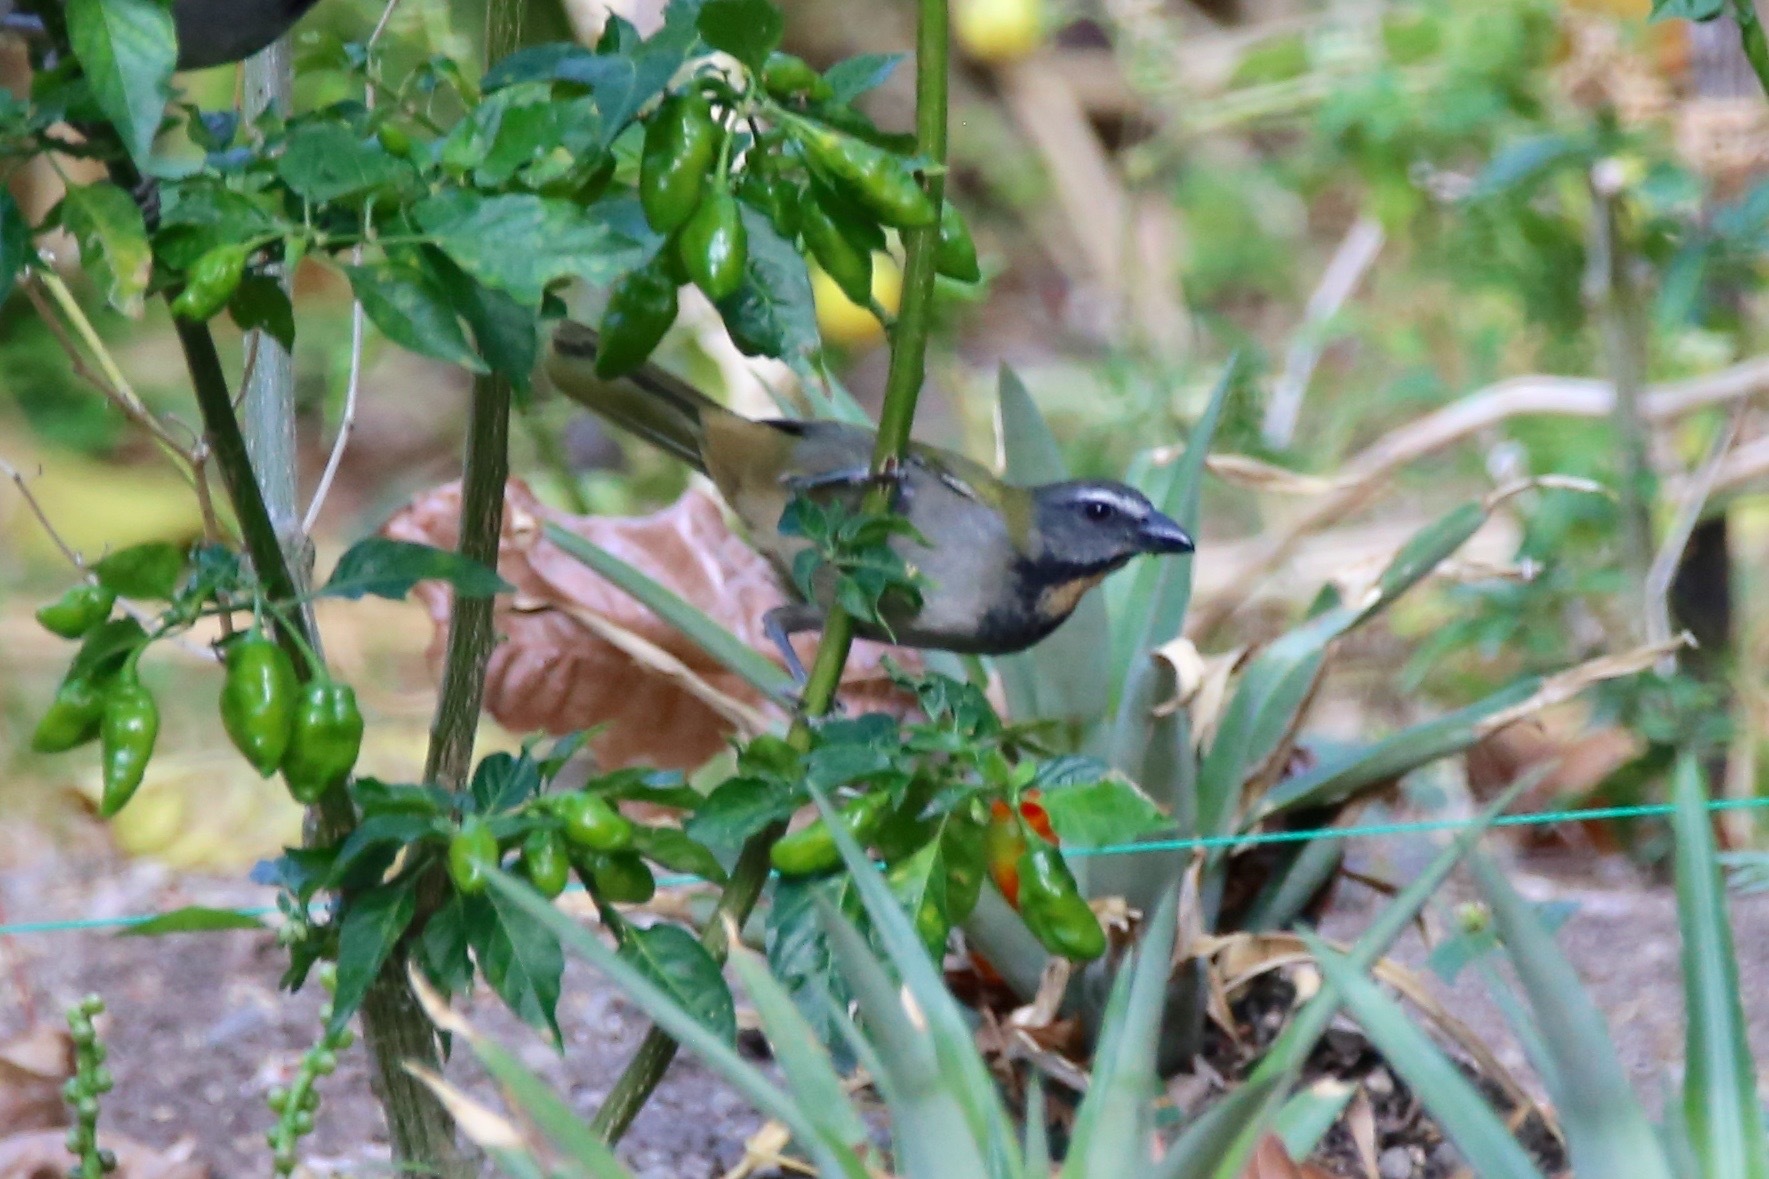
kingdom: Animalia
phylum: Chordata
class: Aves
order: Passeriformes
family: Thraupidae
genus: Saltator
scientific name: Saltator maximus
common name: Buff-throated saltator
